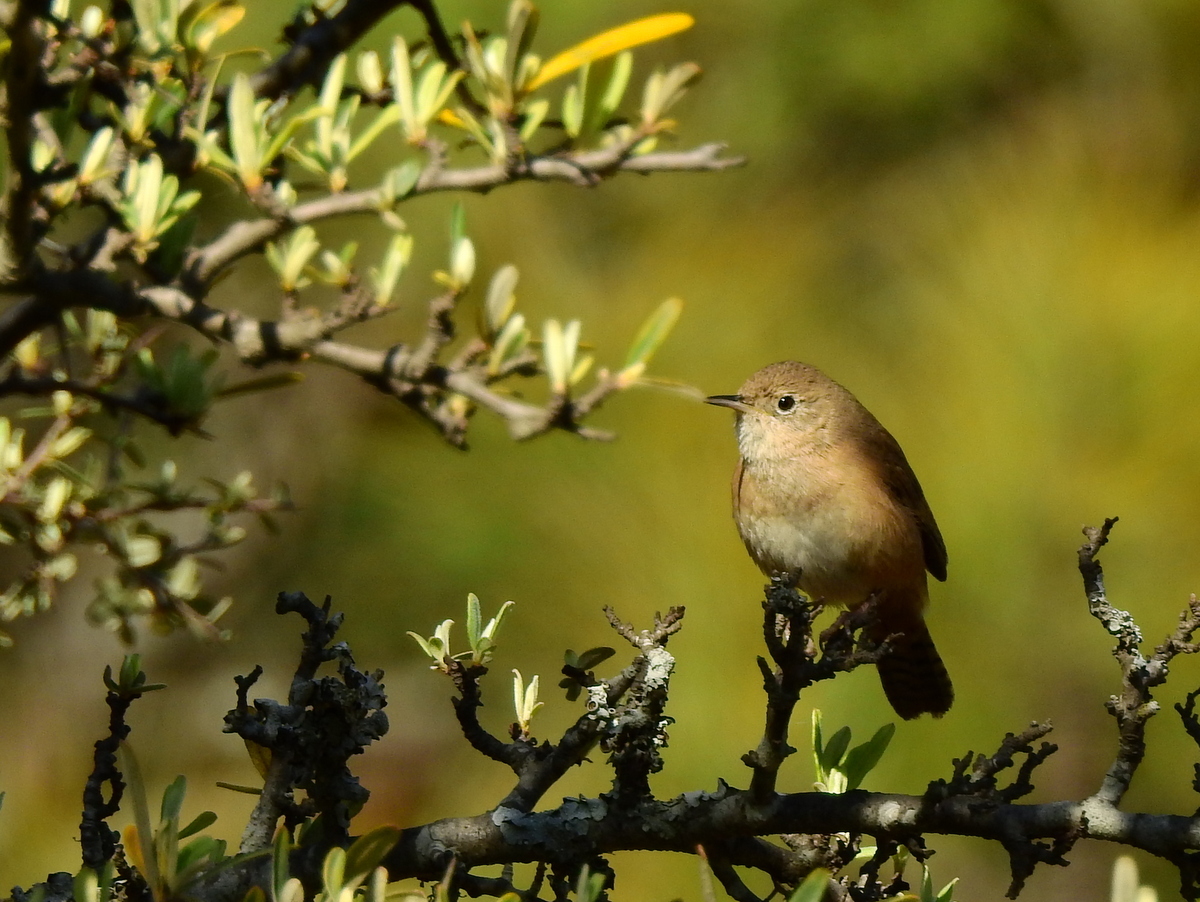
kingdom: Animalia
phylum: Chordata
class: Aves
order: Passeriformes
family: Troglodytidae
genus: Troglodytes
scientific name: Troglodytes aedon
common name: House wren
